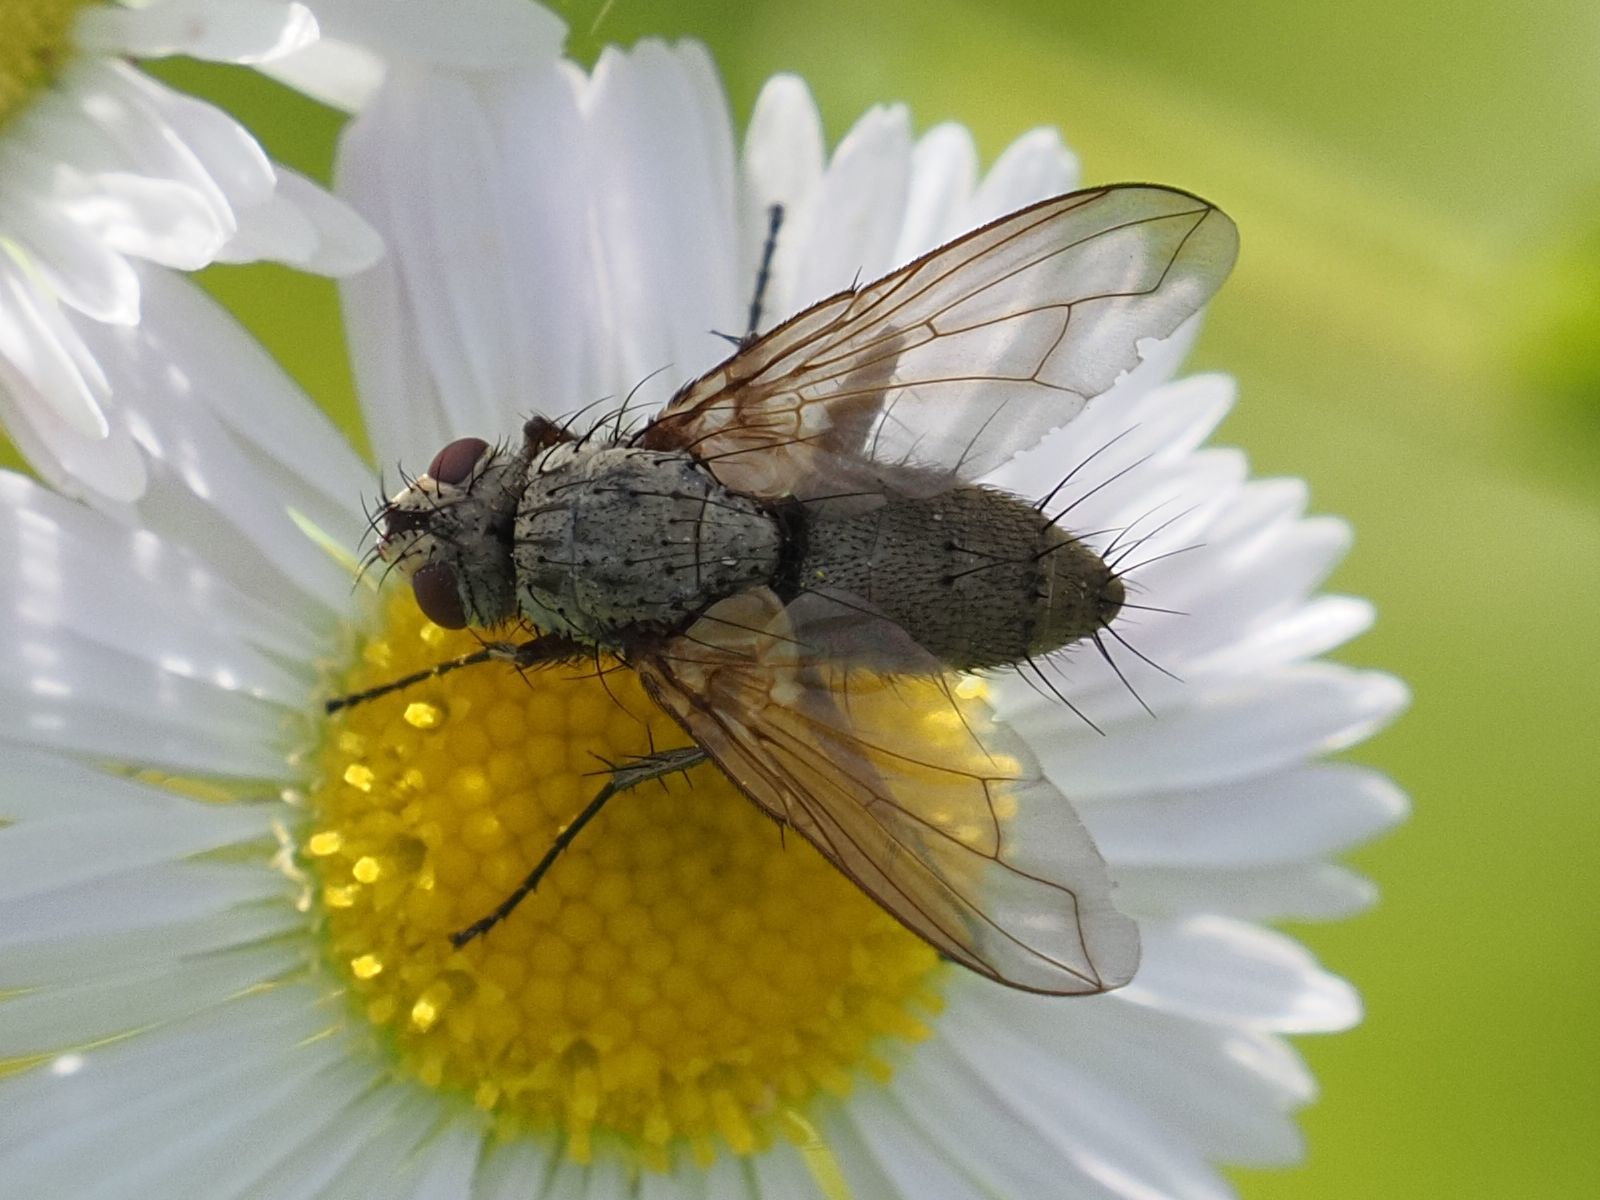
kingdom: Animalia
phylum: Arthropoda
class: Insecta
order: Diptera
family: Tachinidae
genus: Dinera
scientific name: Dinera grisescens
